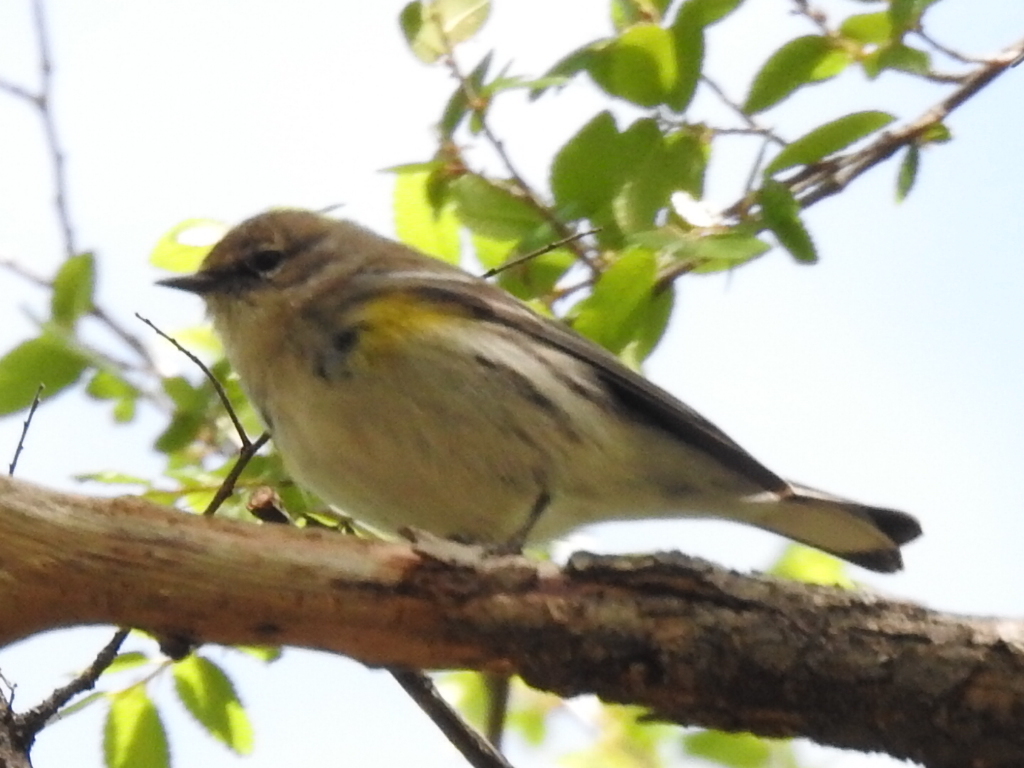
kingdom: Animalia
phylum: Chordata
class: Aves
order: Passeriformes
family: Parulidae
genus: Setophaga
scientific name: Setophaga coronata
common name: Myrtle warbler
